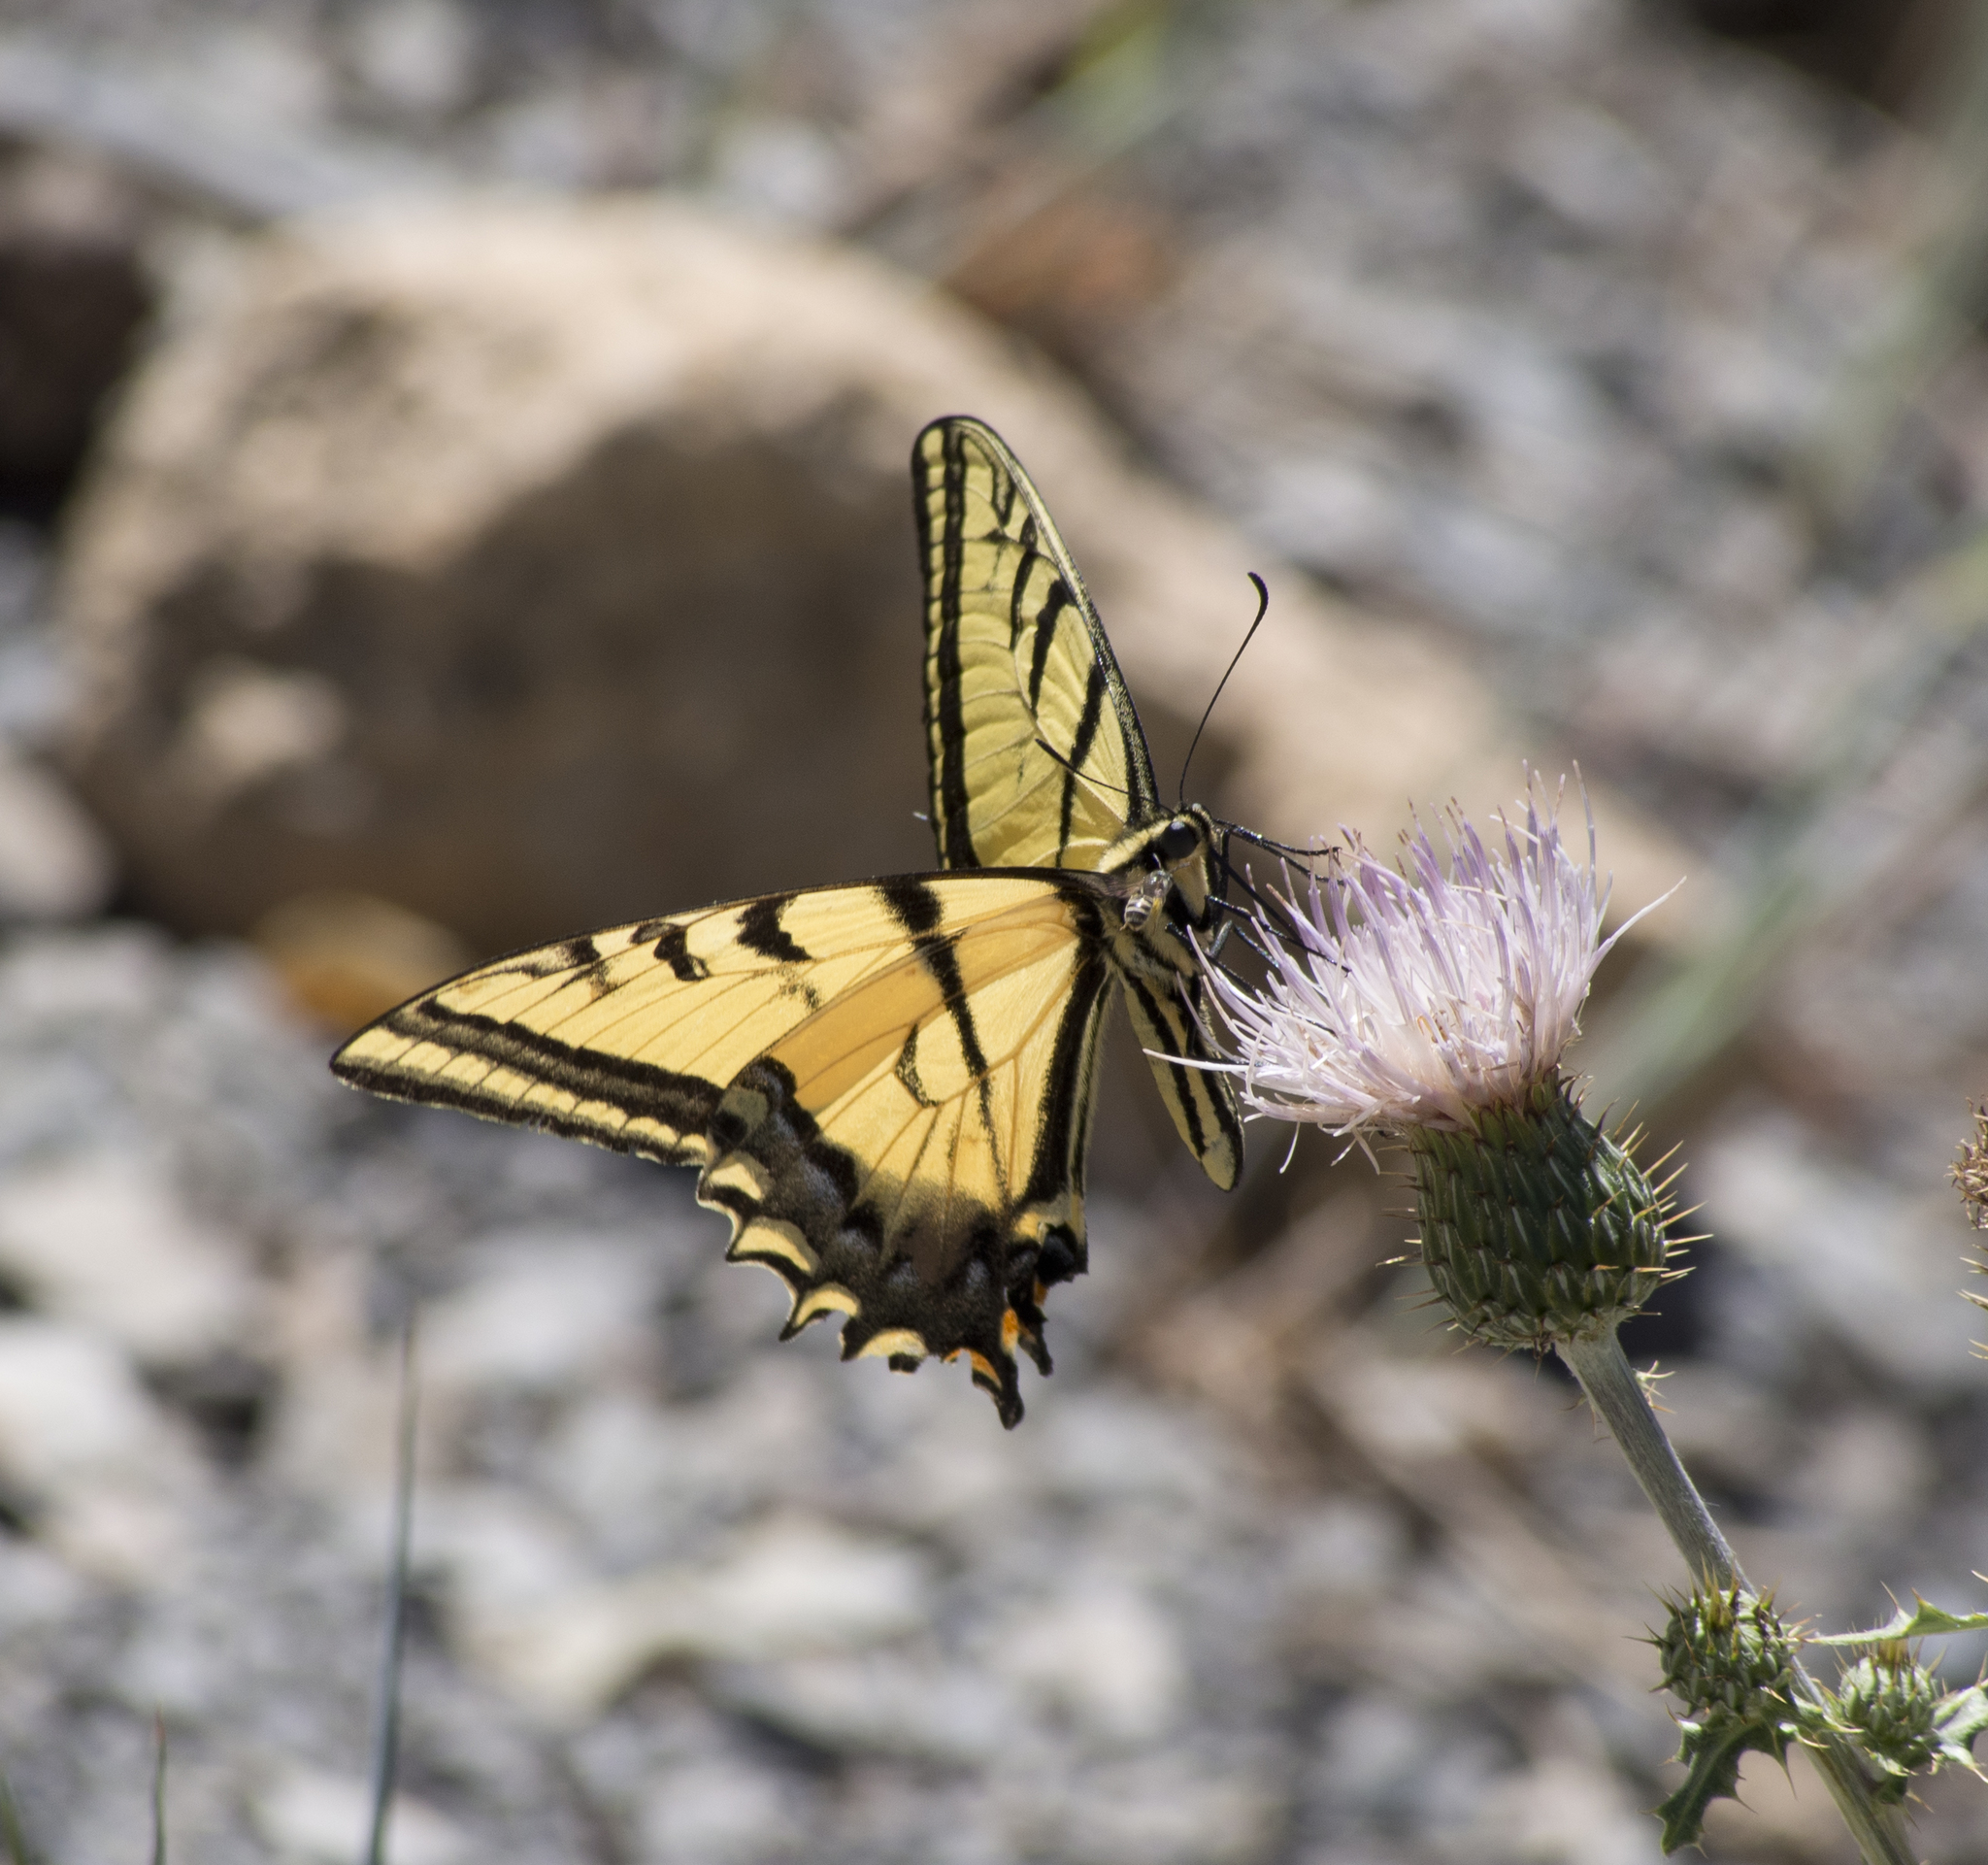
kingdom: Animalia
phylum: Arthropoda
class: Insecta
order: Lepidoptera
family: Papilionidae
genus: Papilio
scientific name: Papilio multicaudata
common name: Two-tailed tiger swallowtail
